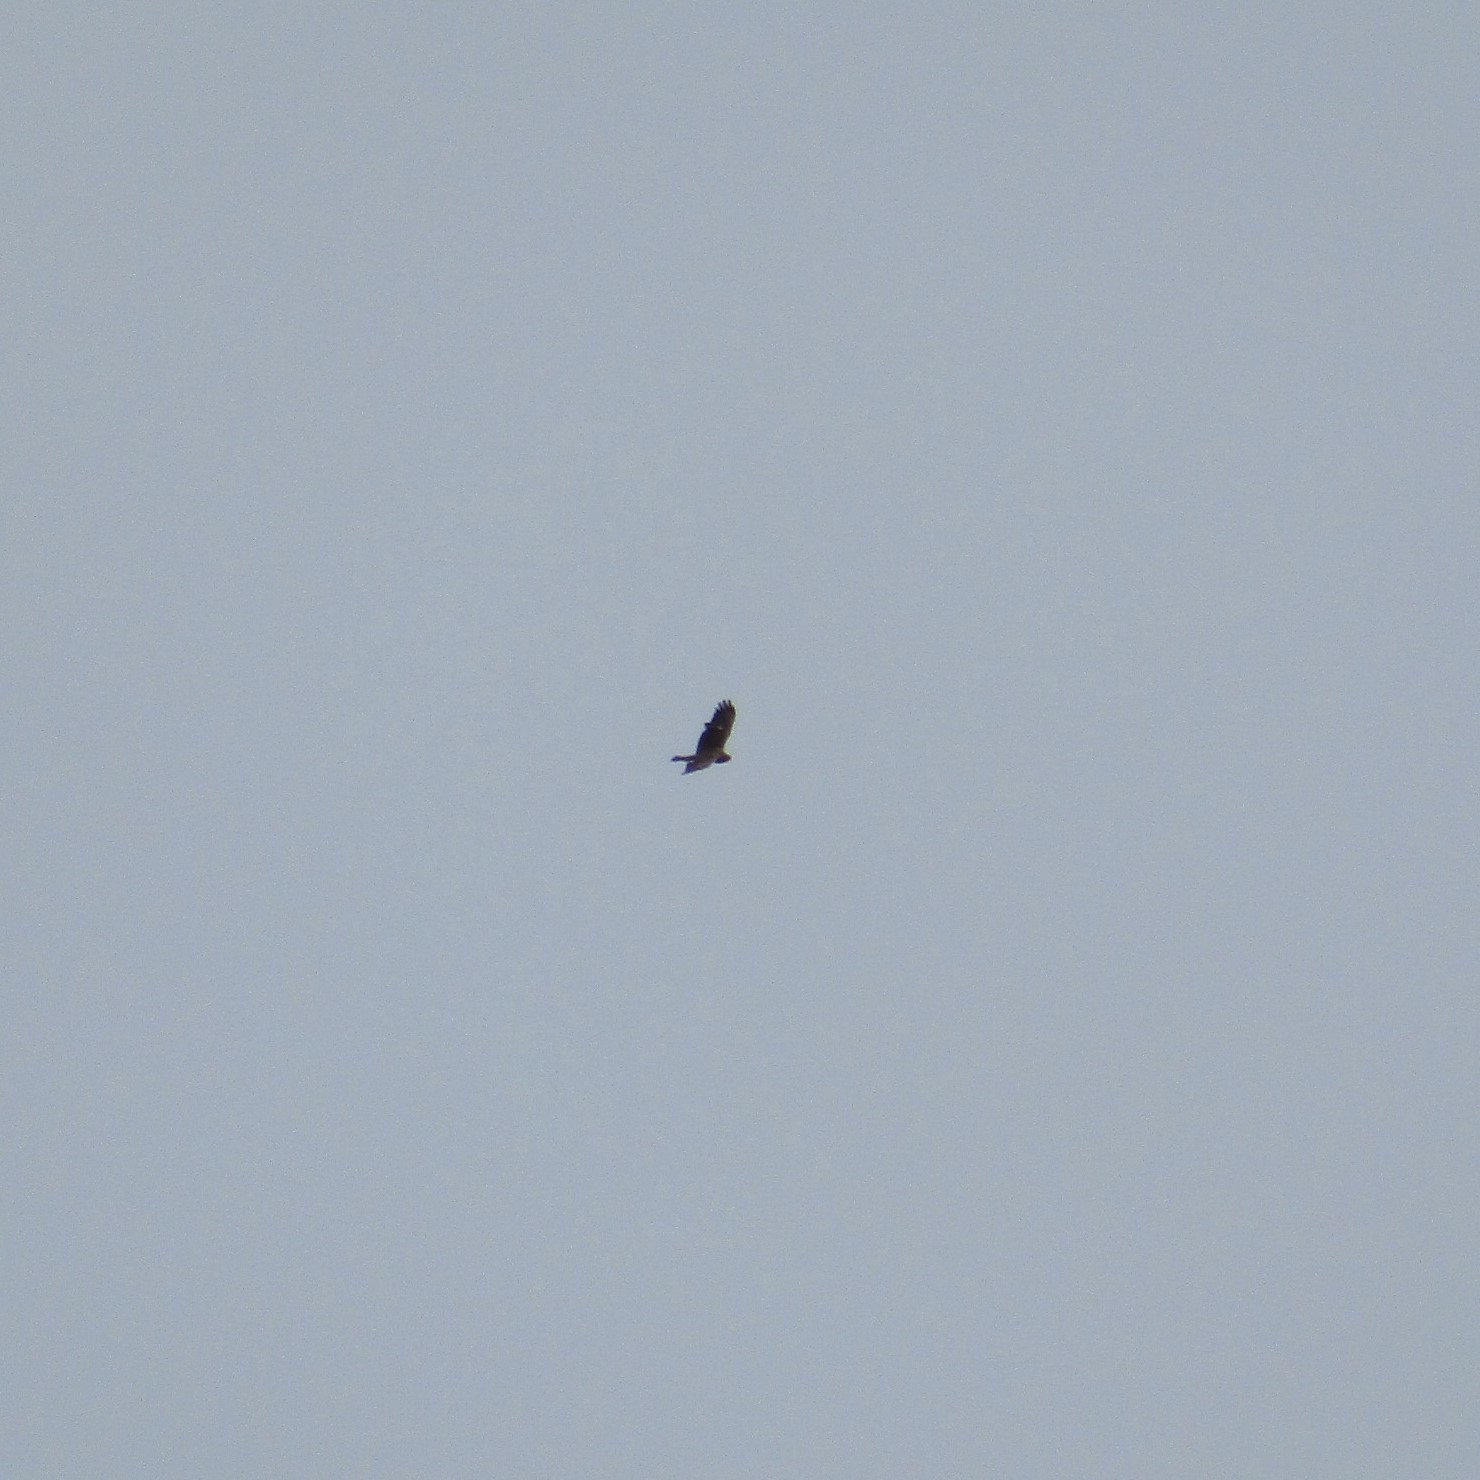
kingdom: Animalia
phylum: Chordata
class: Aves
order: Accipitriformes
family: Accipitridae
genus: Circus
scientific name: Circus approximans
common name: Swamp harrier
